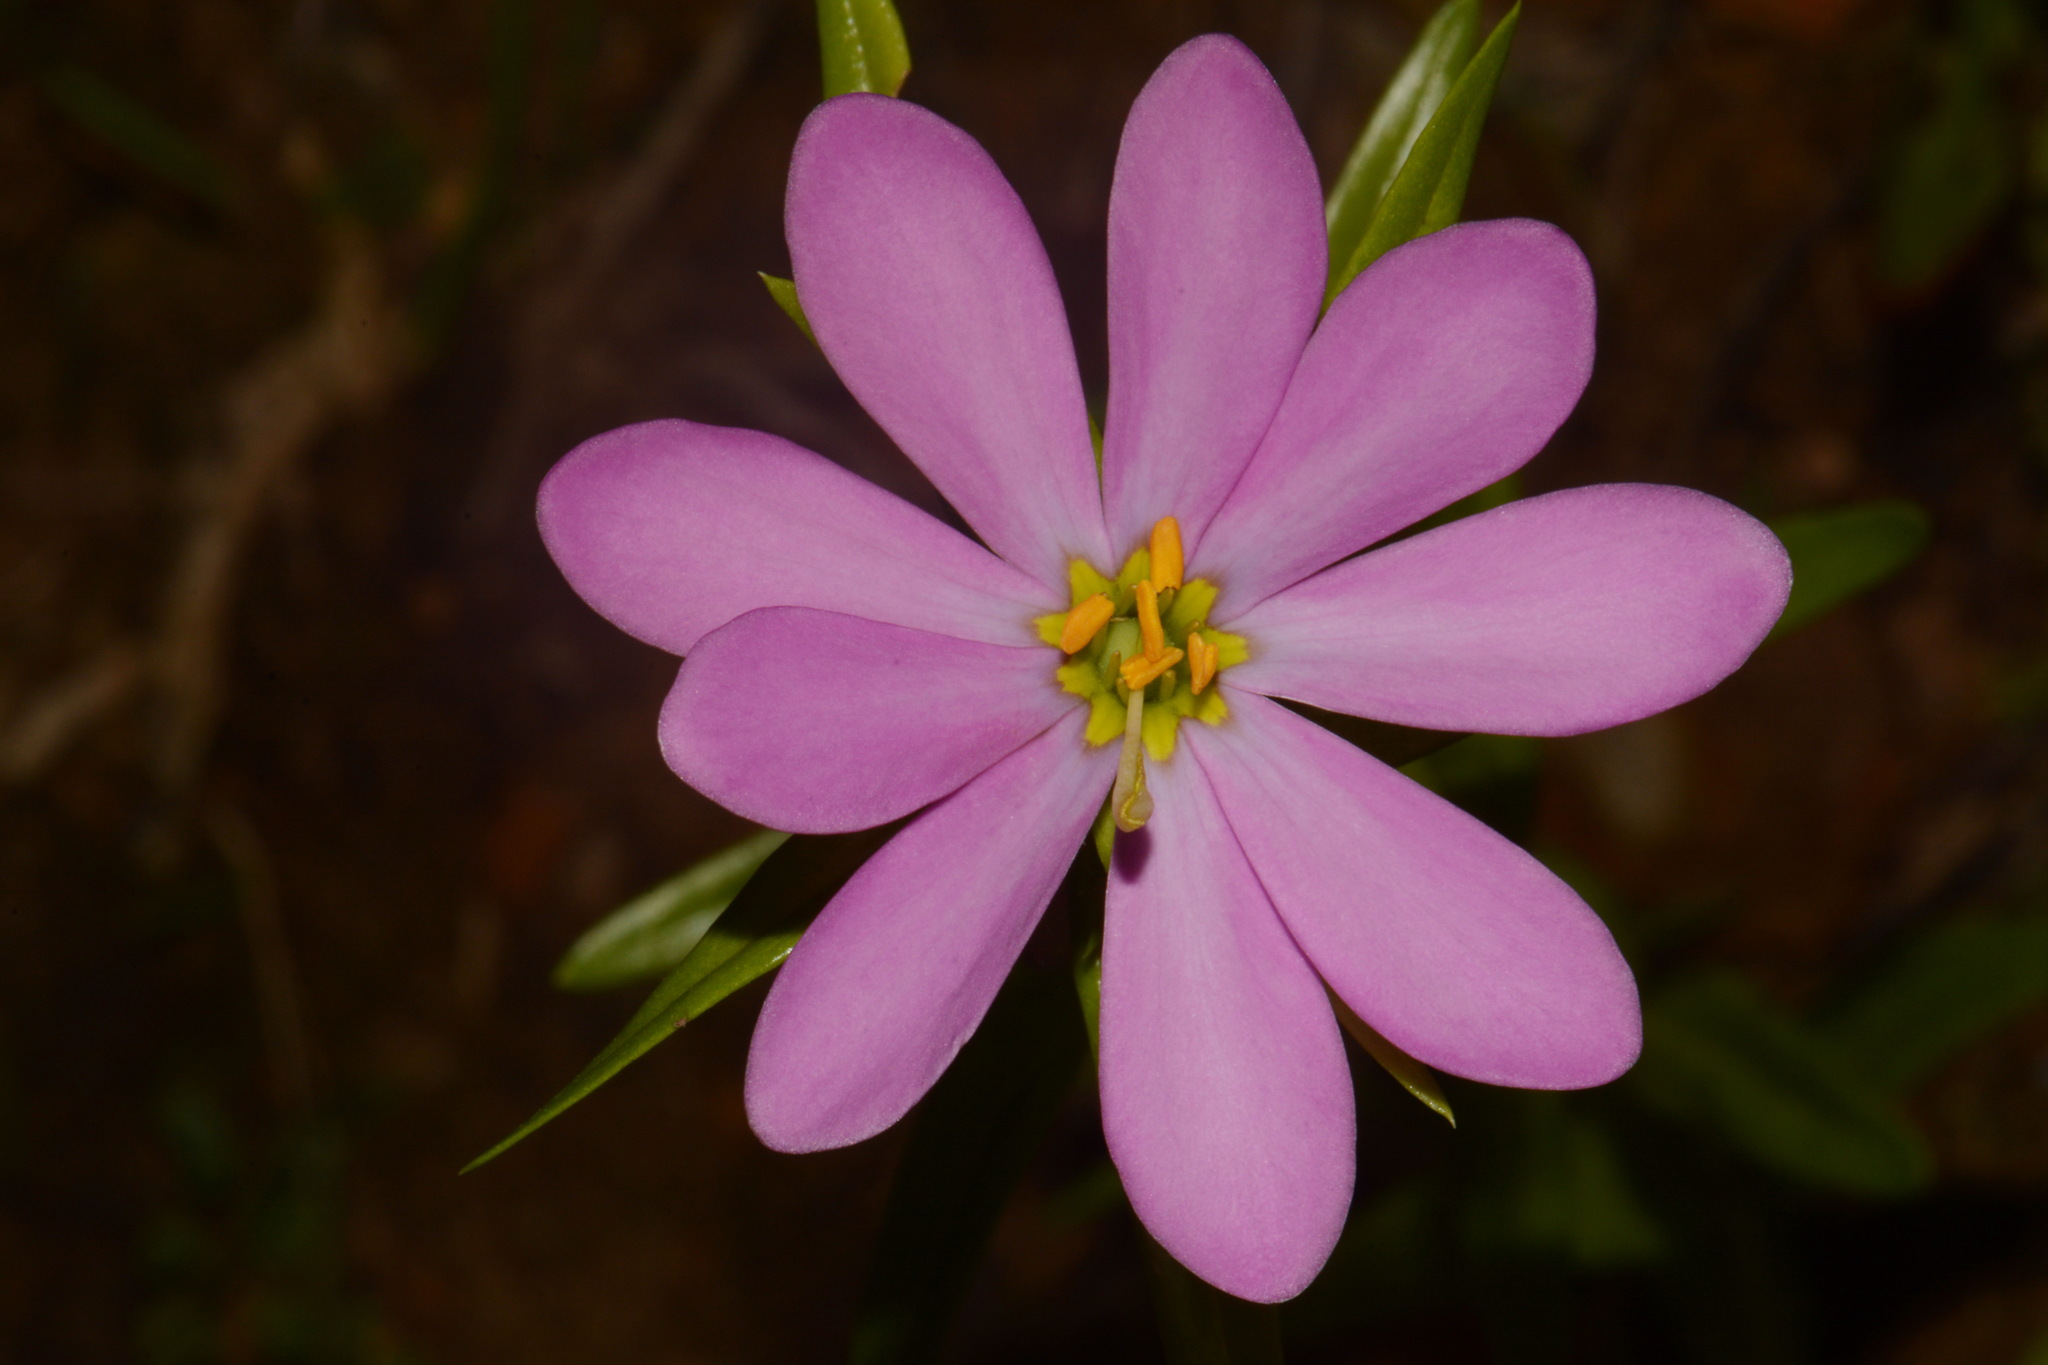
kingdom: Plantae
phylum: Tracheophyta
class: Magnoliopsida
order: Gentianales
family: Gentianaceae
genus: Sabatia
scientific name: Sabatia capitata
